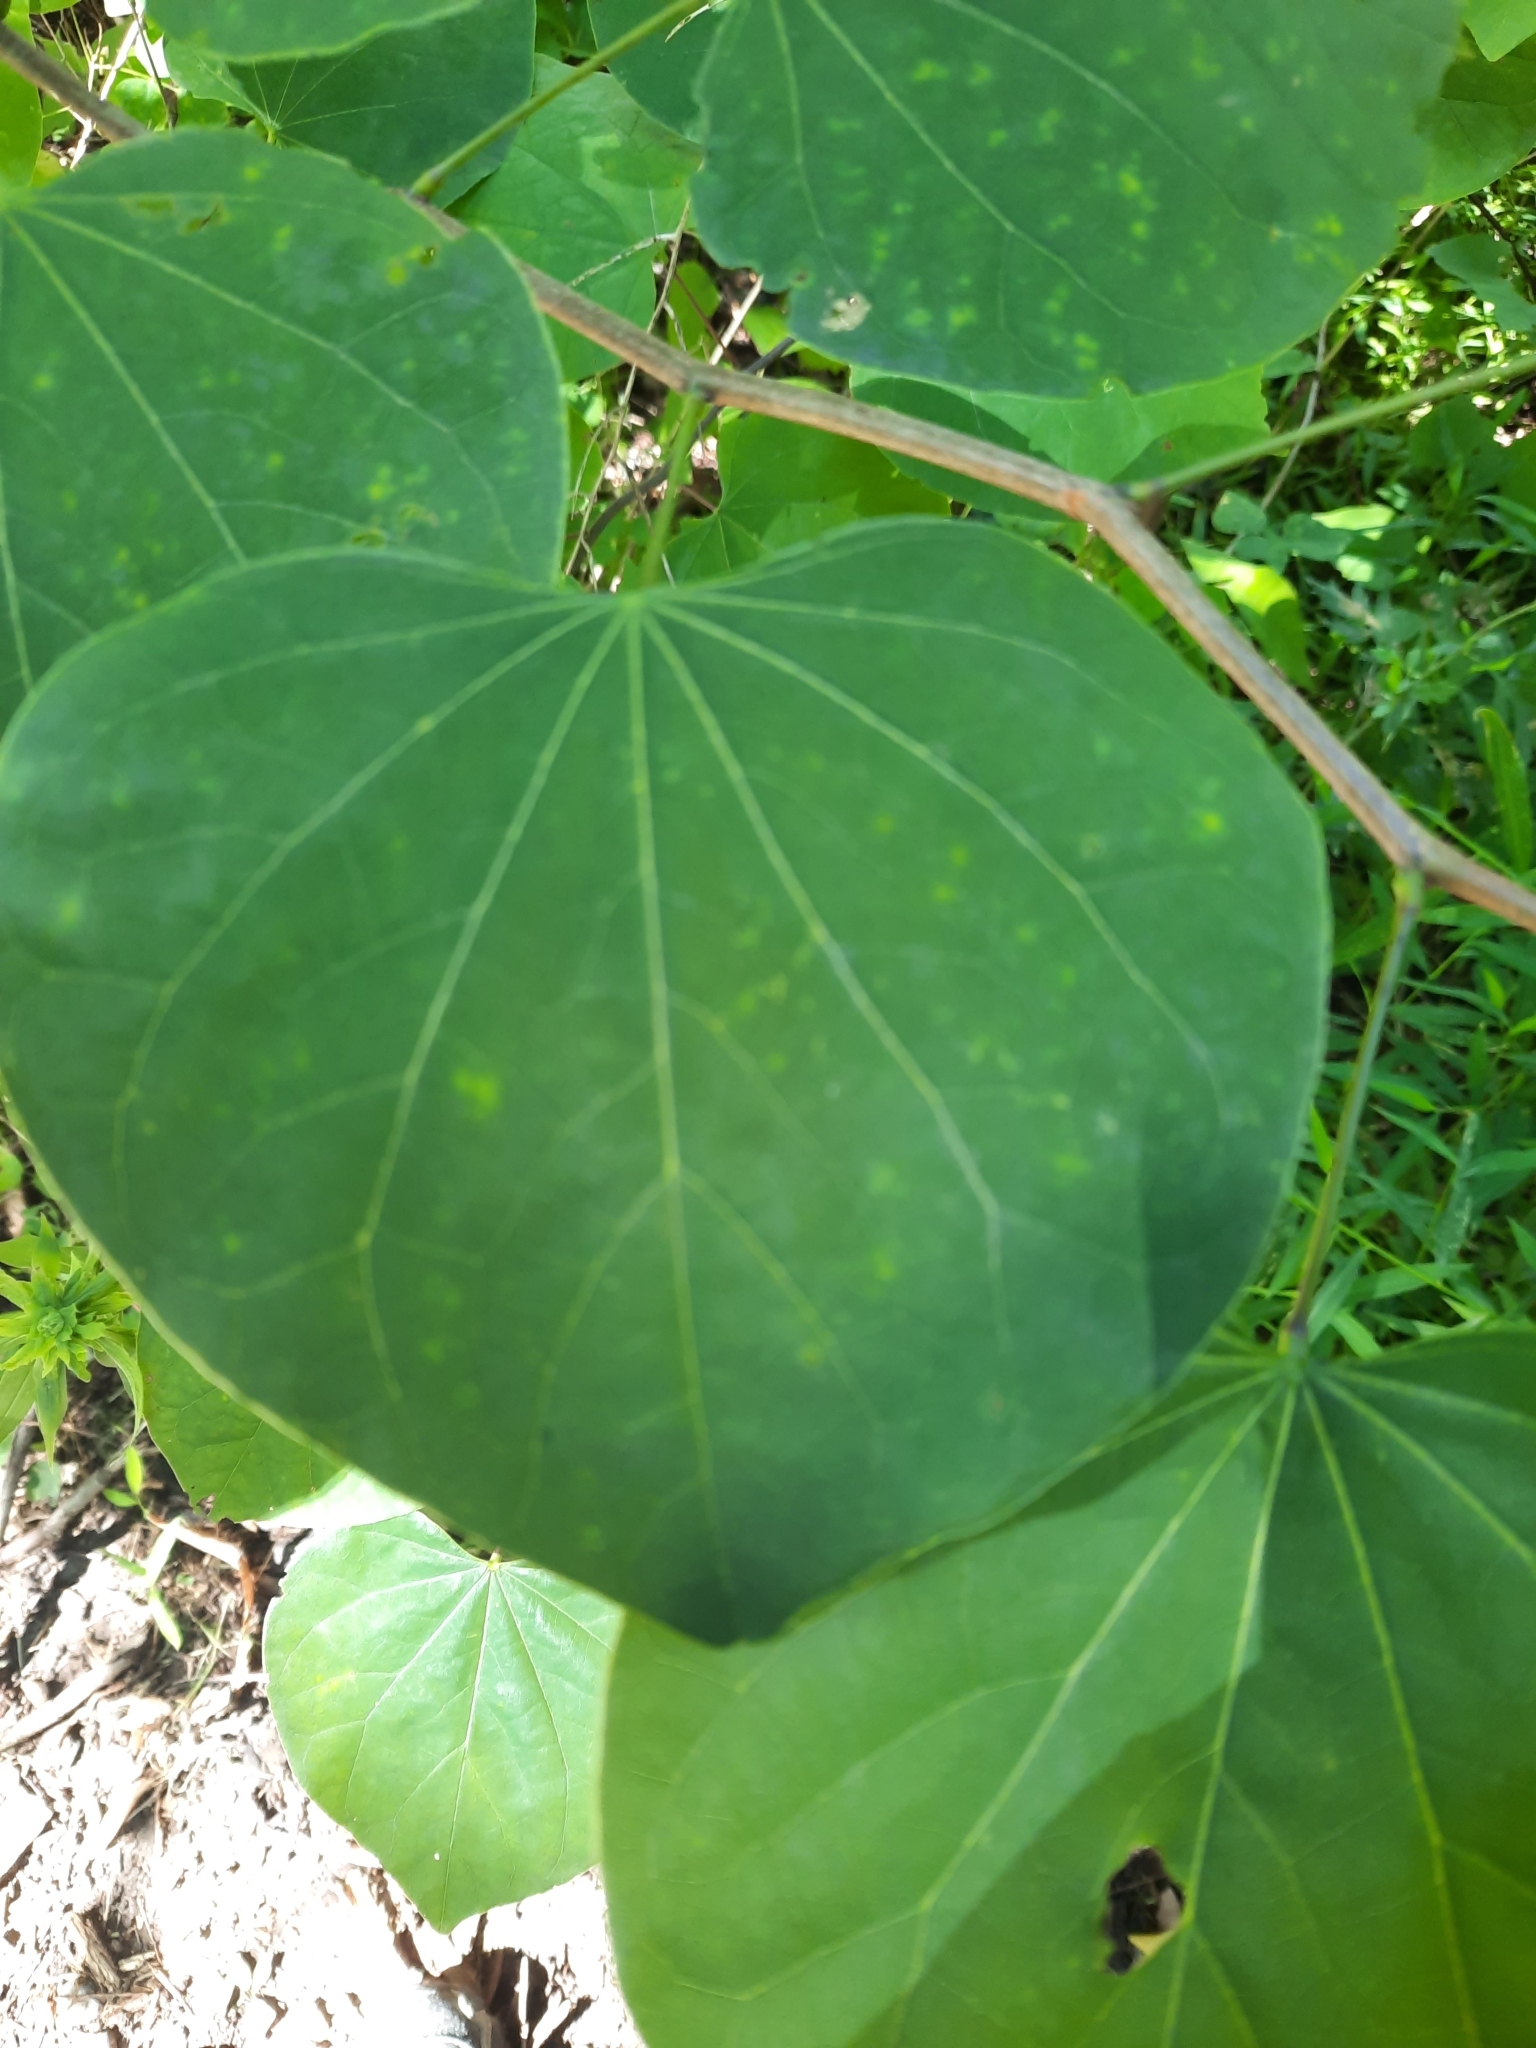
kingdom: Plantae
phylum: Tracheophyta
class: Magnoliopsida
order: Fabales
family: Fabaceae
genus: Cercis
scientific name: Cercis canadensis
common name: Eastern redbud
